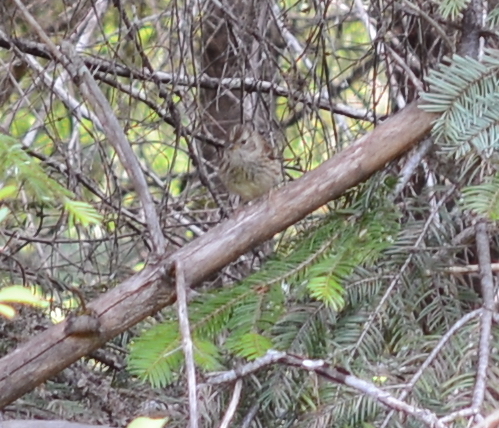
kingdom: Animalia
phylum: Chordata
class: Aves
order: Passeriformes
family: Passerellidae
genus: Zonotrichia
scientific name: Zonotrichia leucophrys
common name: White-crowned sparrow
